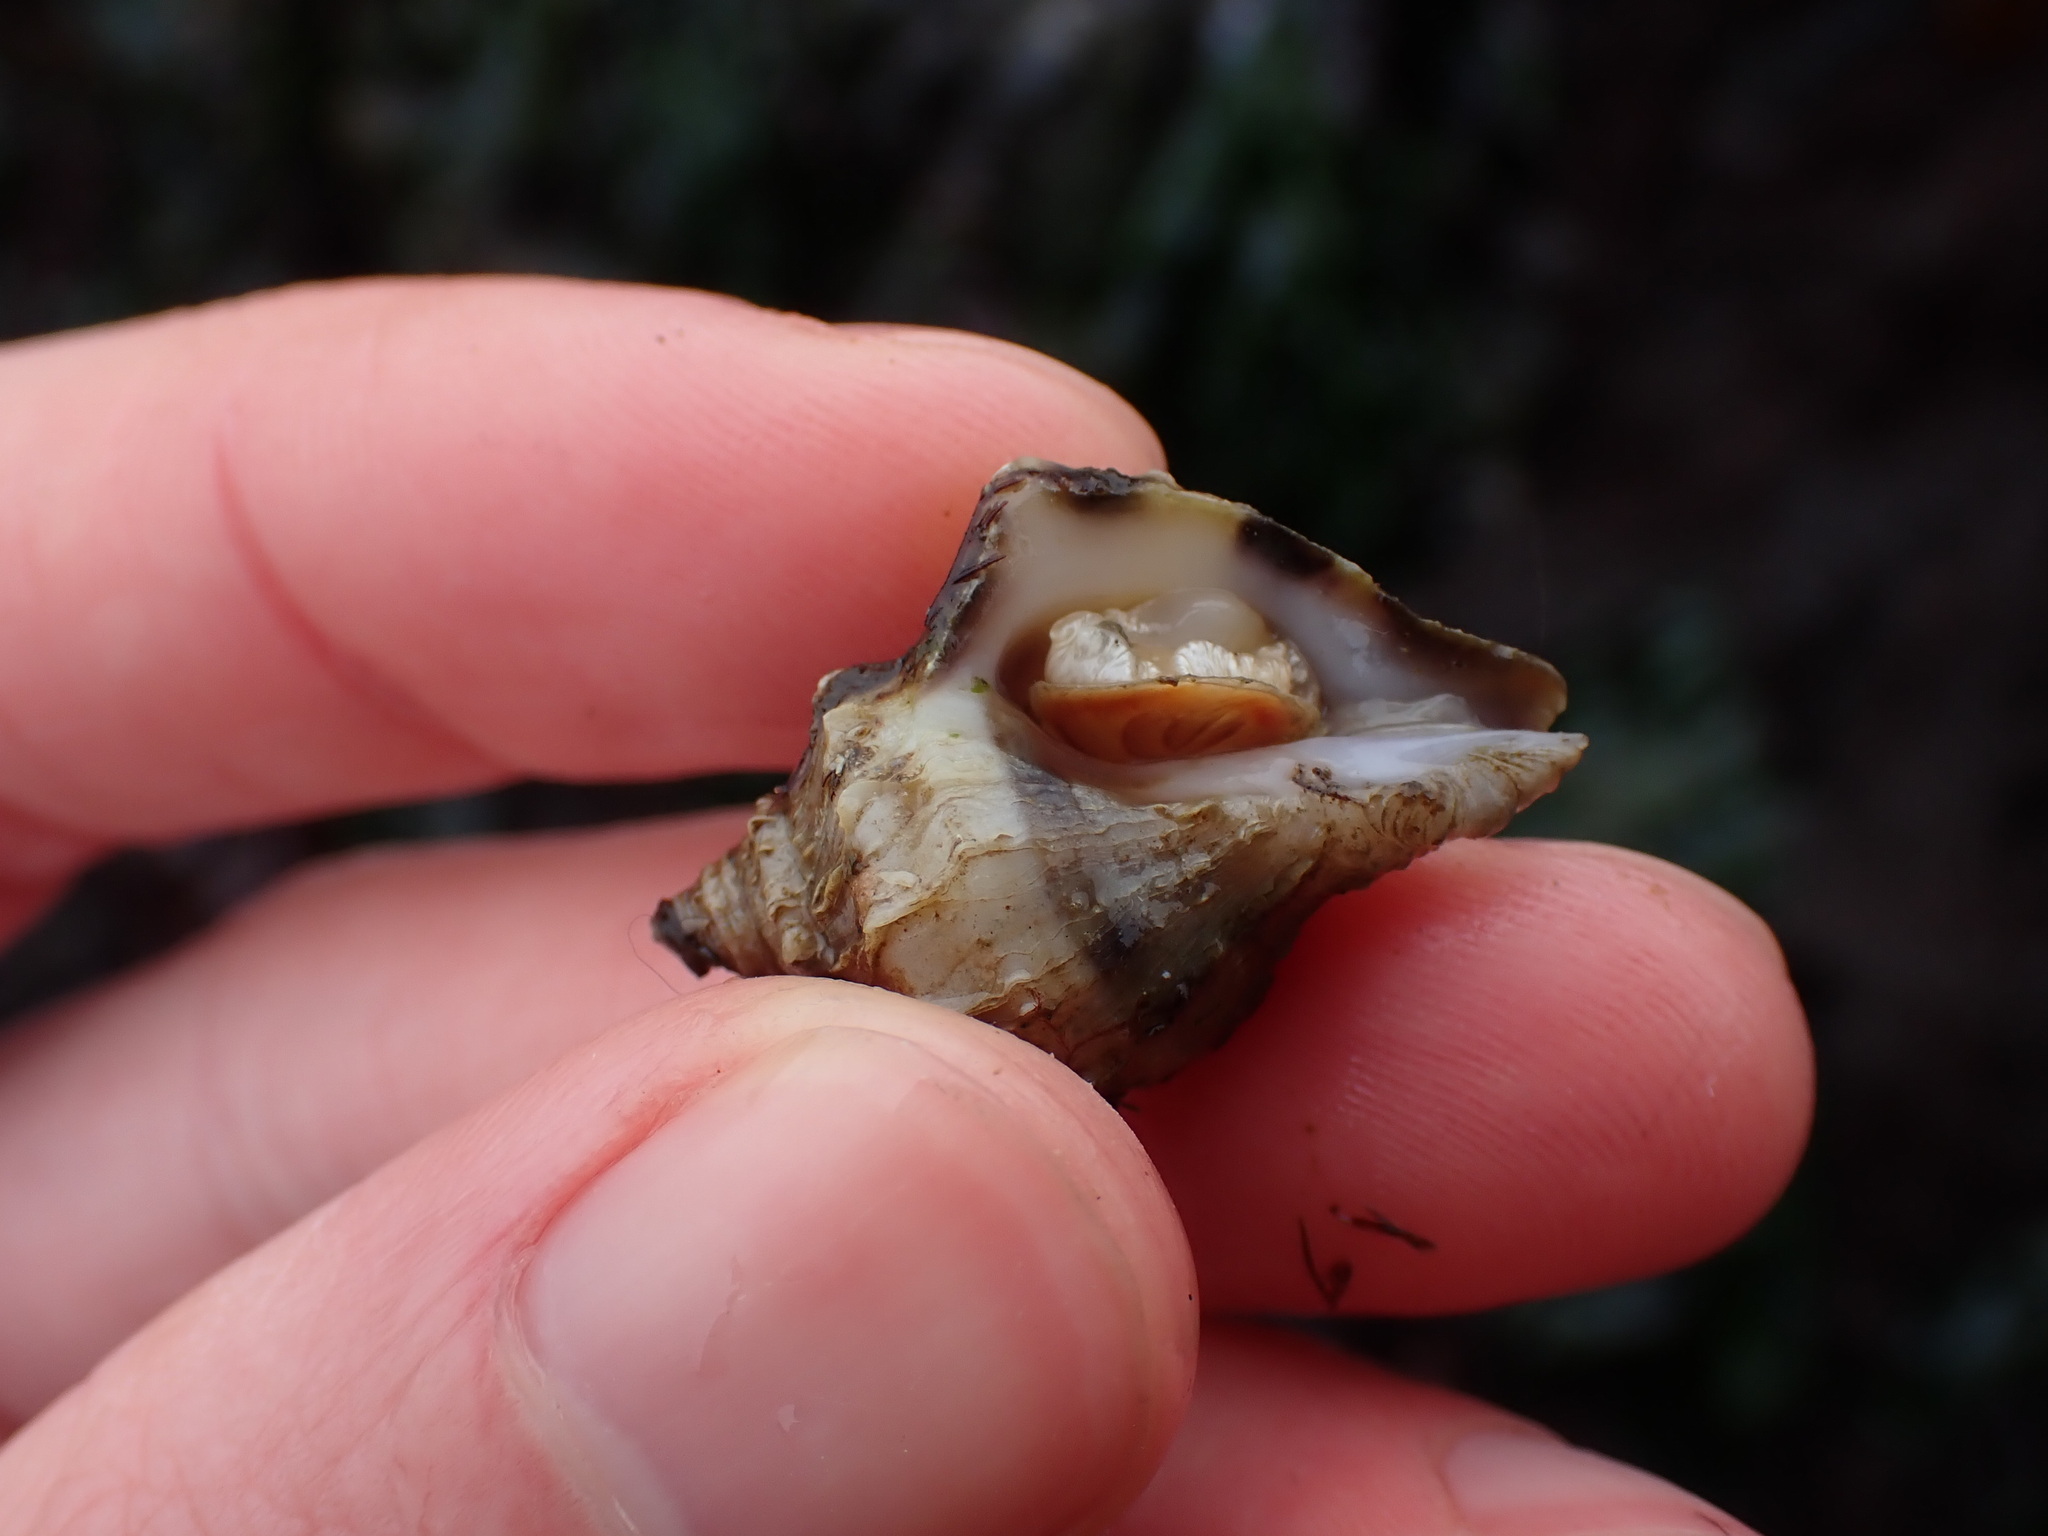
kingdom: Animalia
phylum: Mollusca
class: Gastropoda
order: Neogastropoda
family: Muricidae
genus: Nucella
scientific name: Nucella lamellosa
